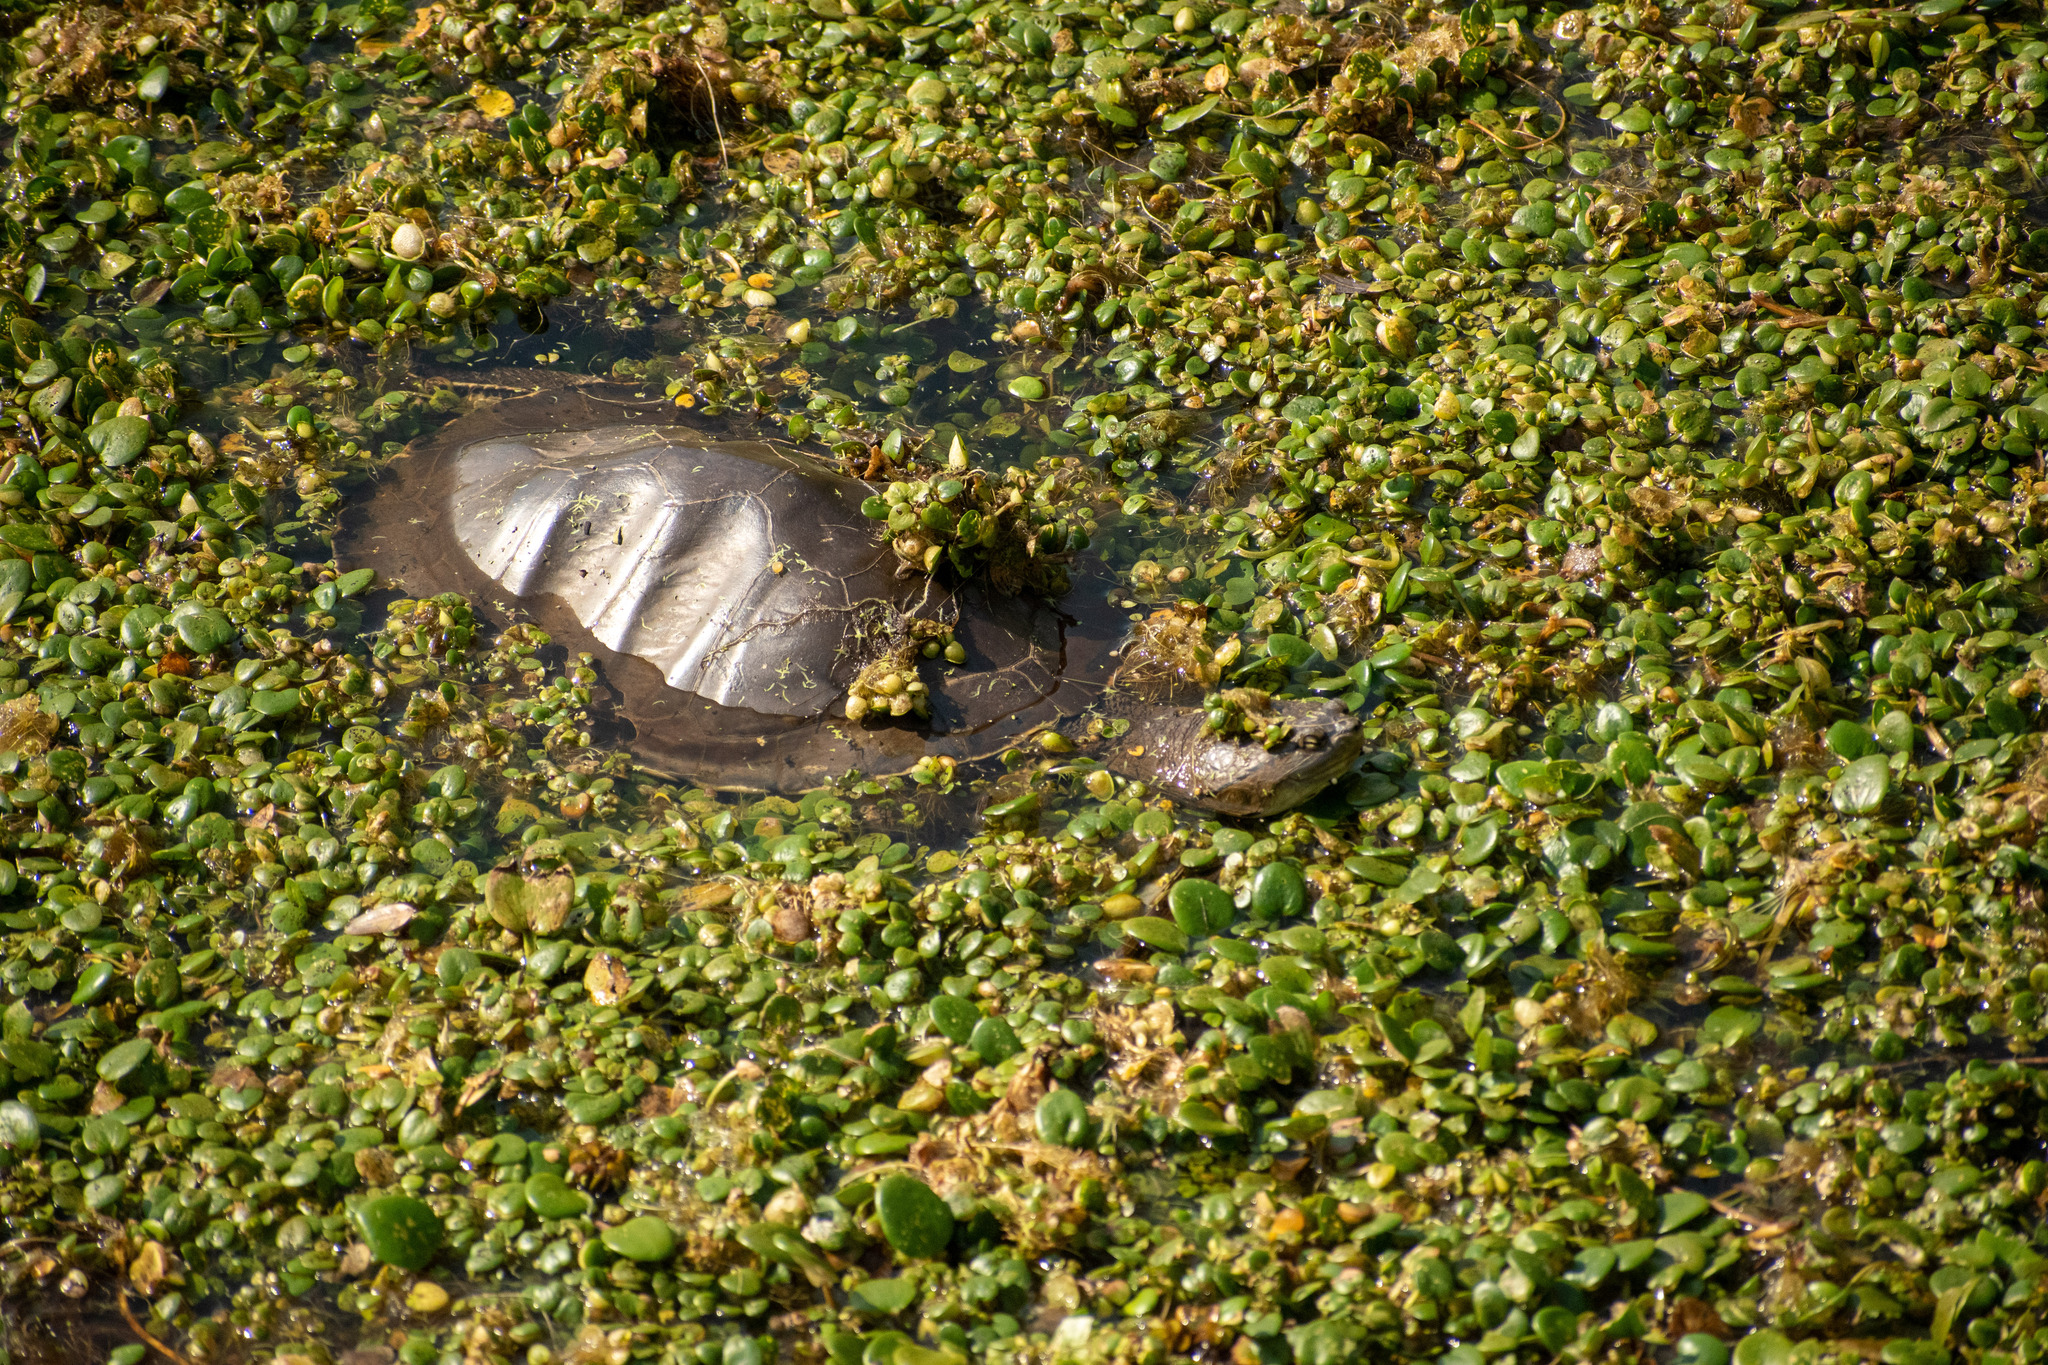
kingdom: Animalia
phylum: Chordata
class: Testudines
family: Chelidae
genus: Phrynops
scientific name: Phrynops hilarii
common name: Side-necked turtle of saint hillaire
